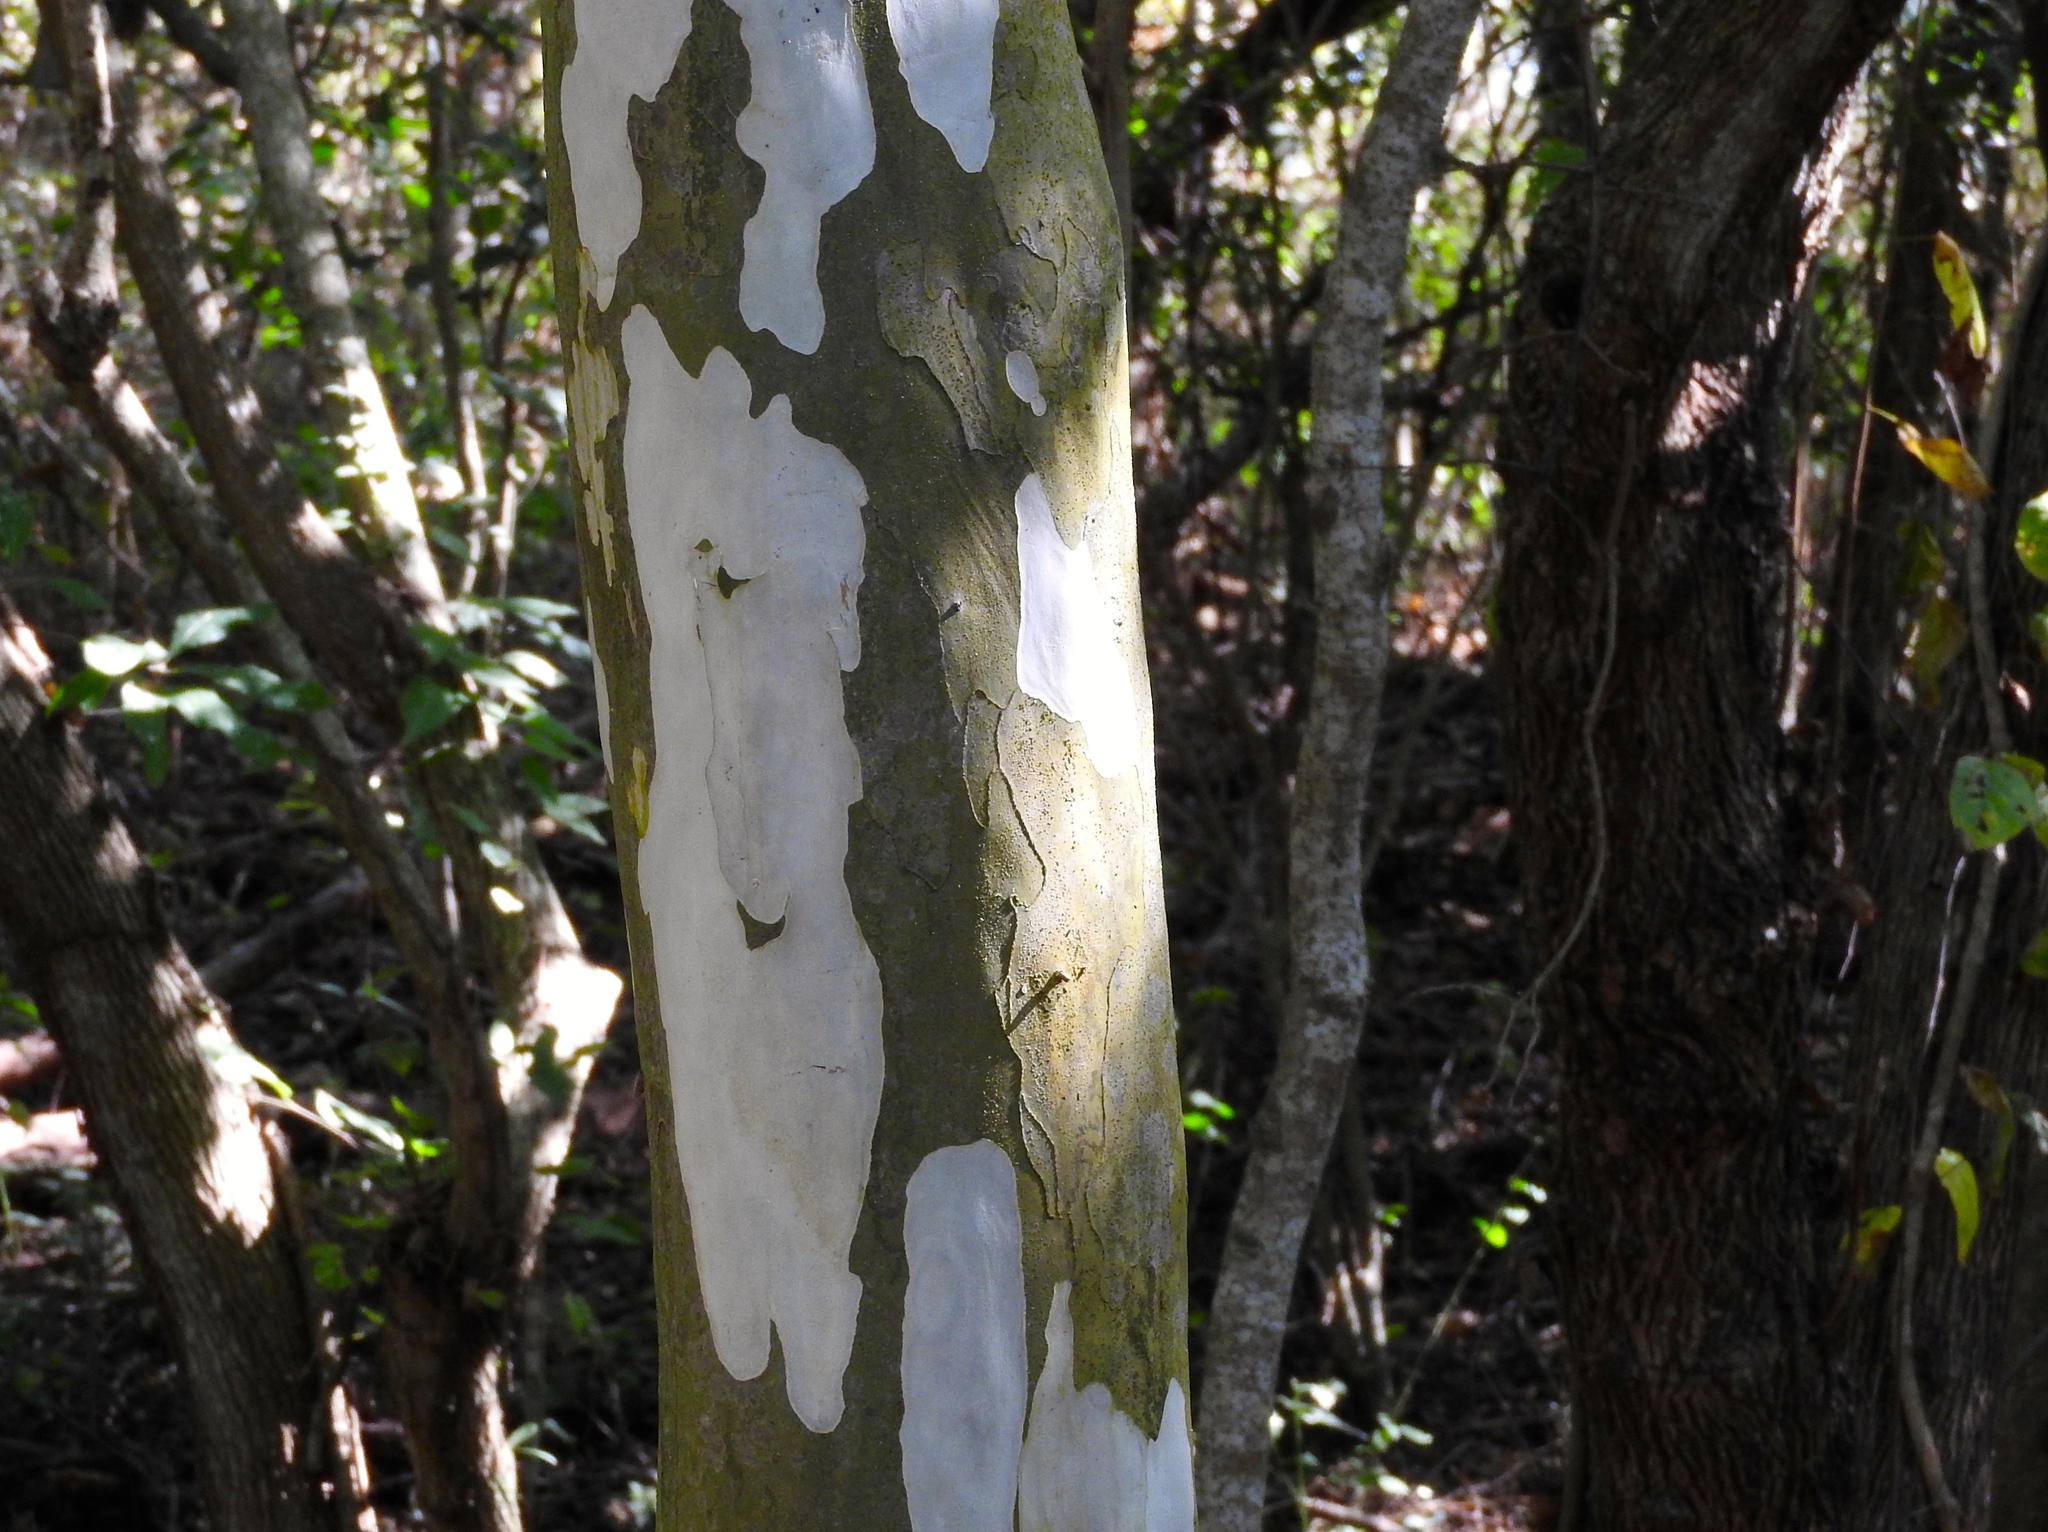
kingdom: Plantae
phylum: Tracheophyta
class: Magnoliopsida
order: Fabales
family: Fabaceae
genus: Libidibia
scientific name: Libidibia sclerocarpa
